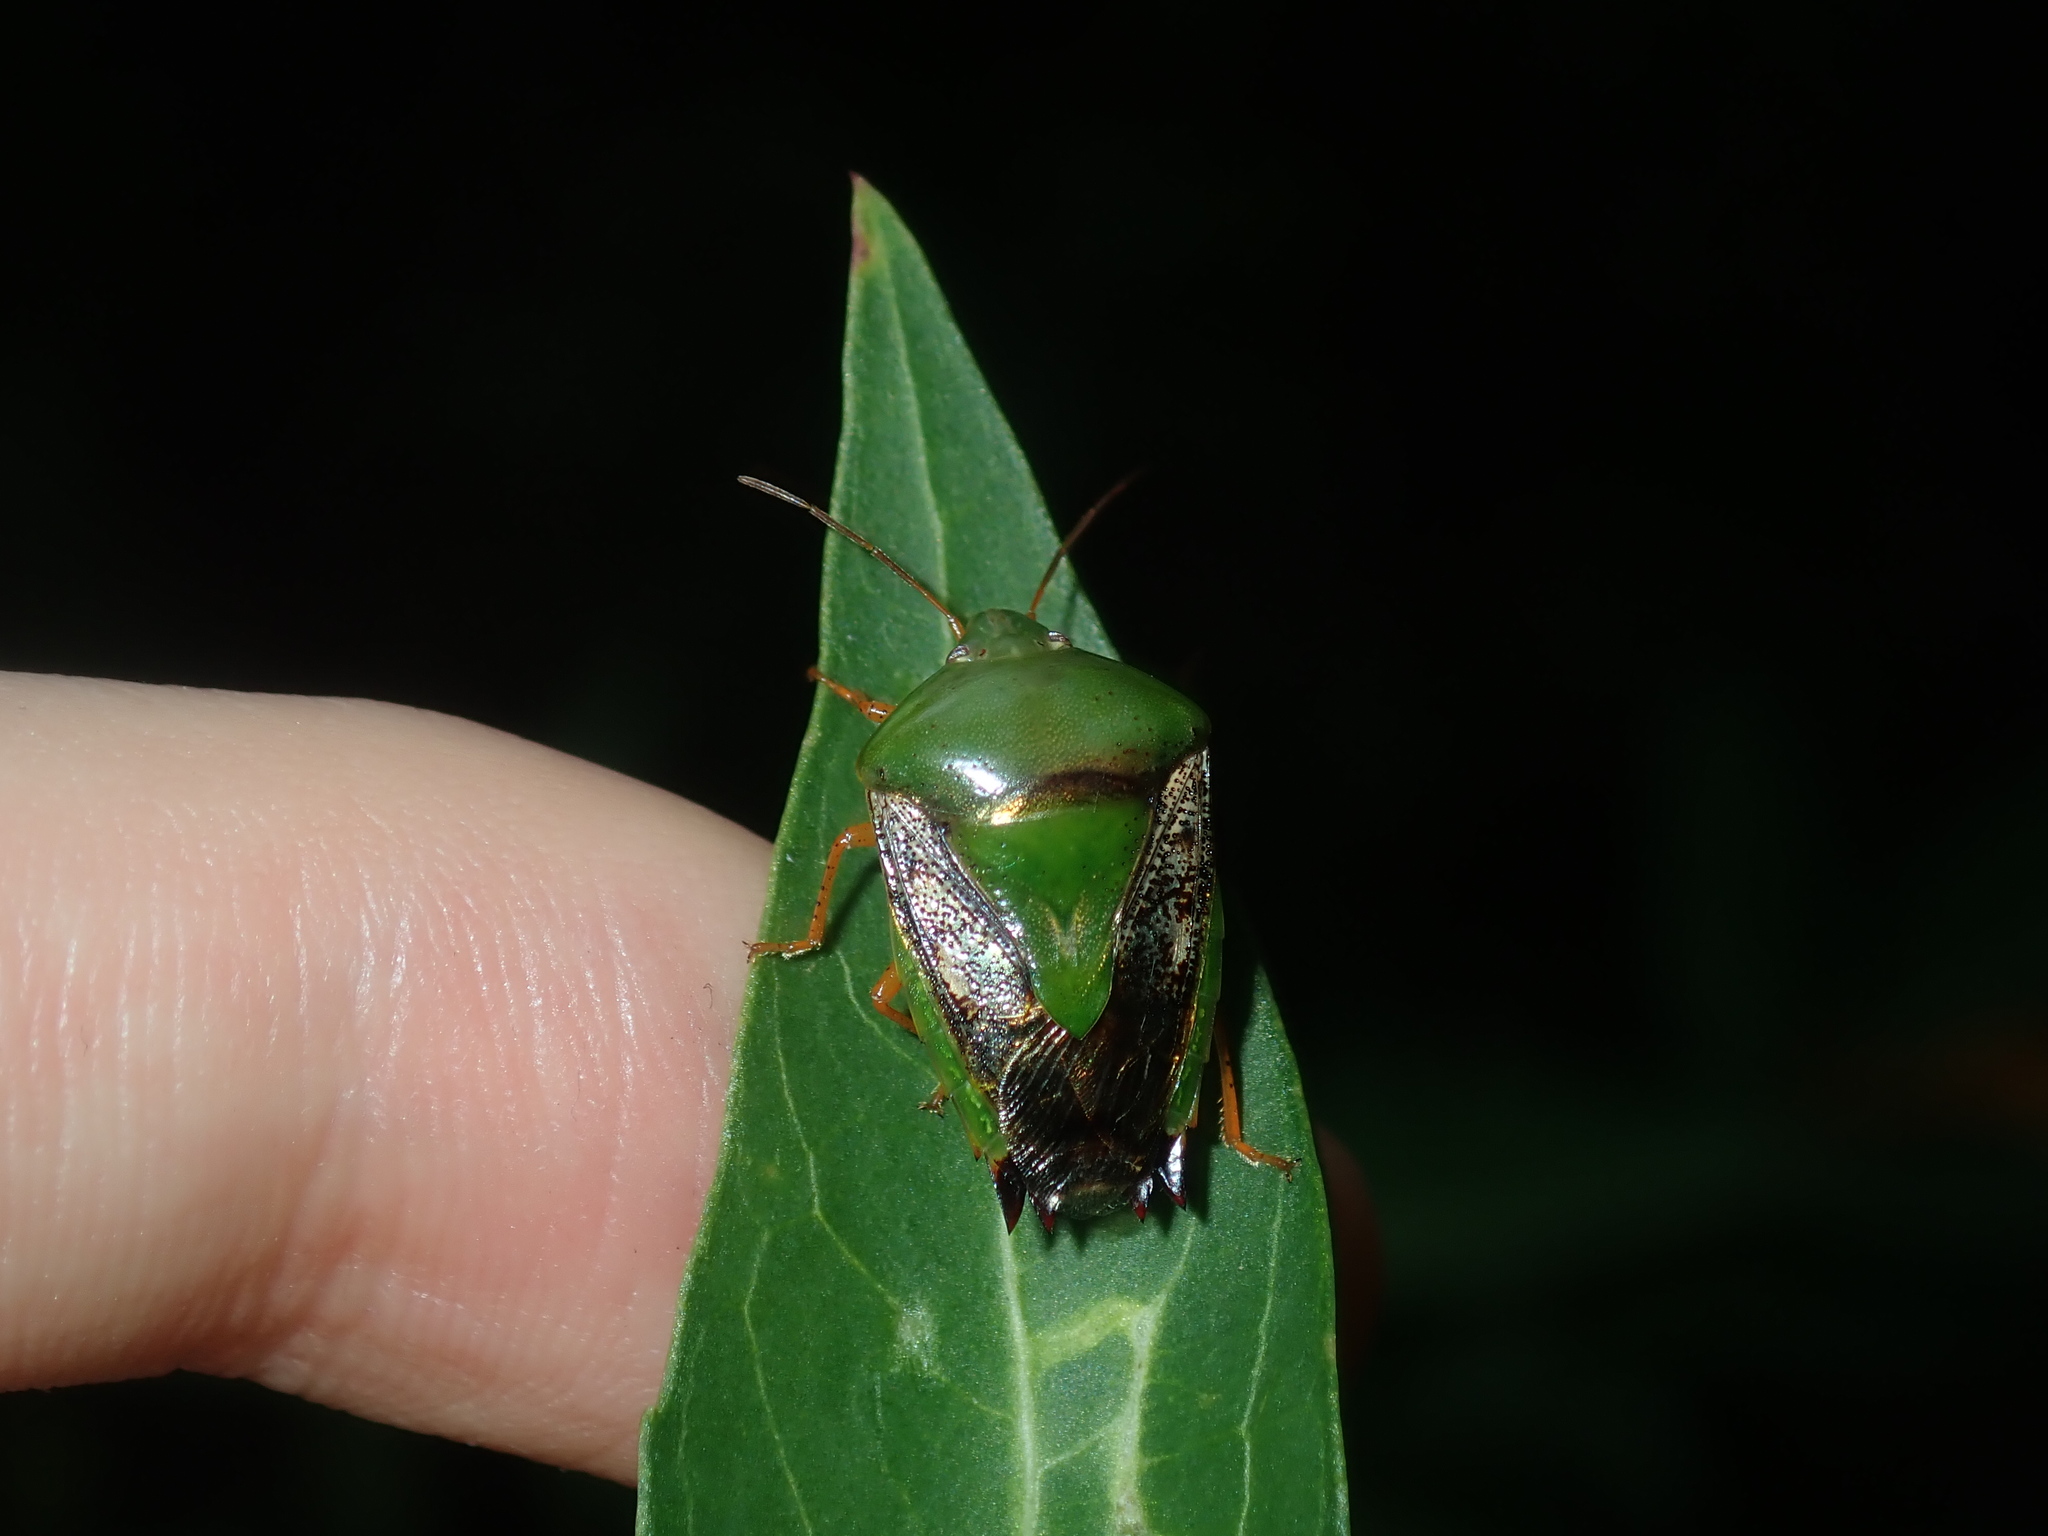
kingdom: Animalia
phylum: Arthropoda
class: Insecta
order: Hemiptera
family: Pentatomidae
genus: Pegala
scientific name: Pegala laevis
